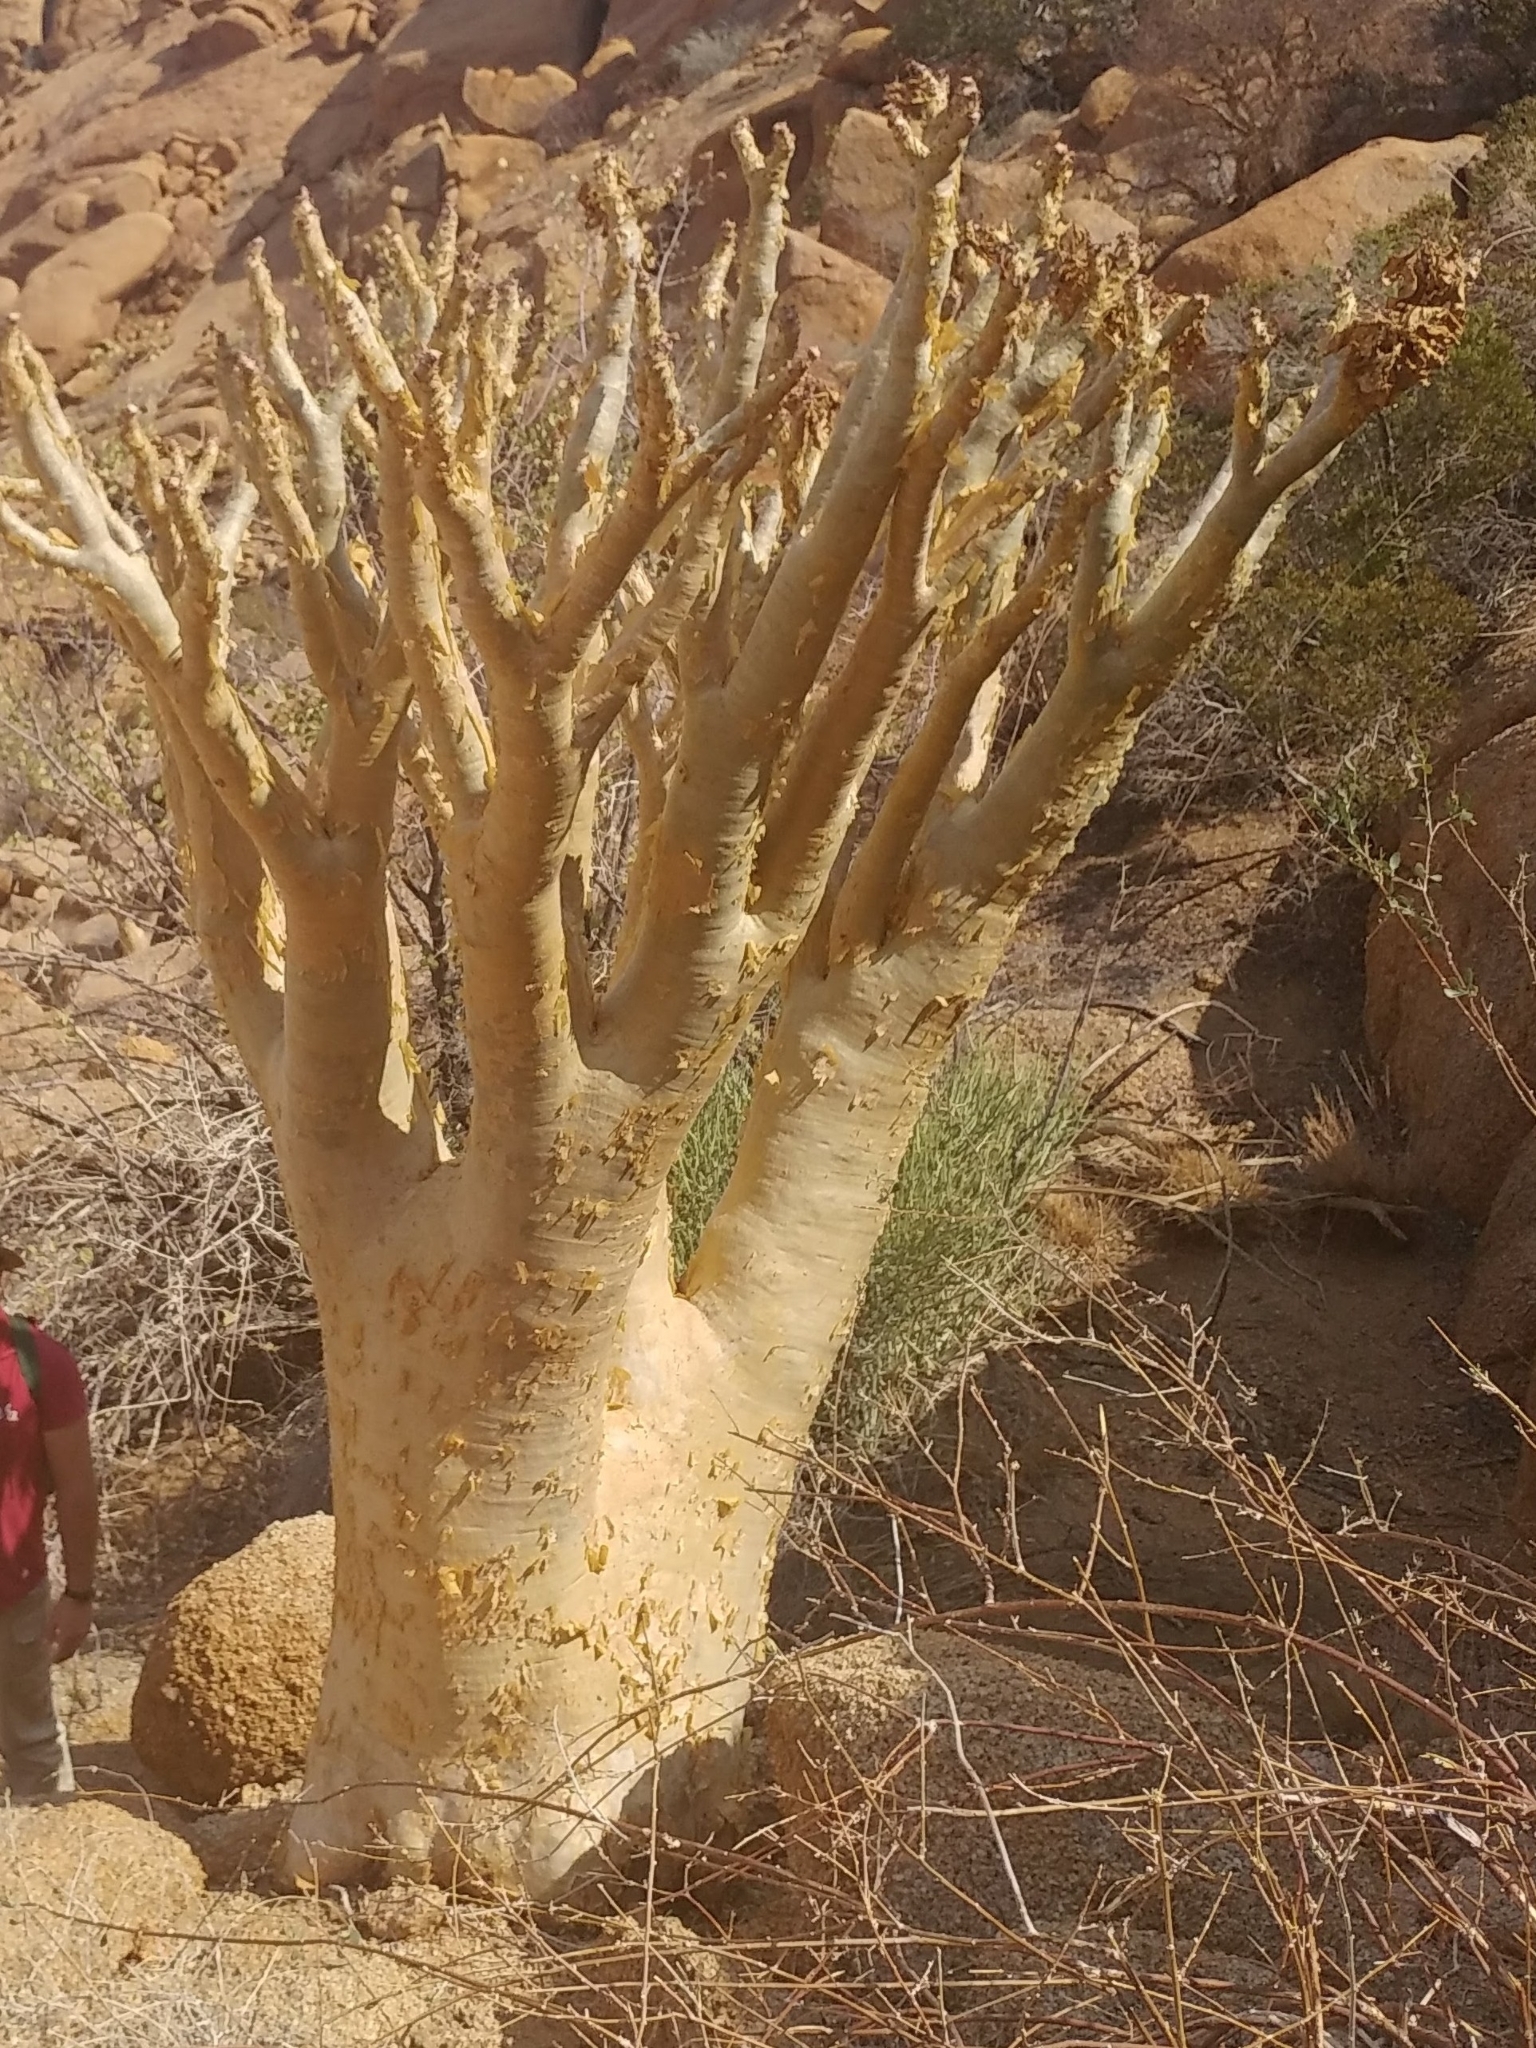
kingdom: Plantae
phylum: Tracheophyta
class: Magnoliopsida
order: Vitales
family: Vitaceae
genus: Cyphostemma
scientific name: Cyphostemma currorii
